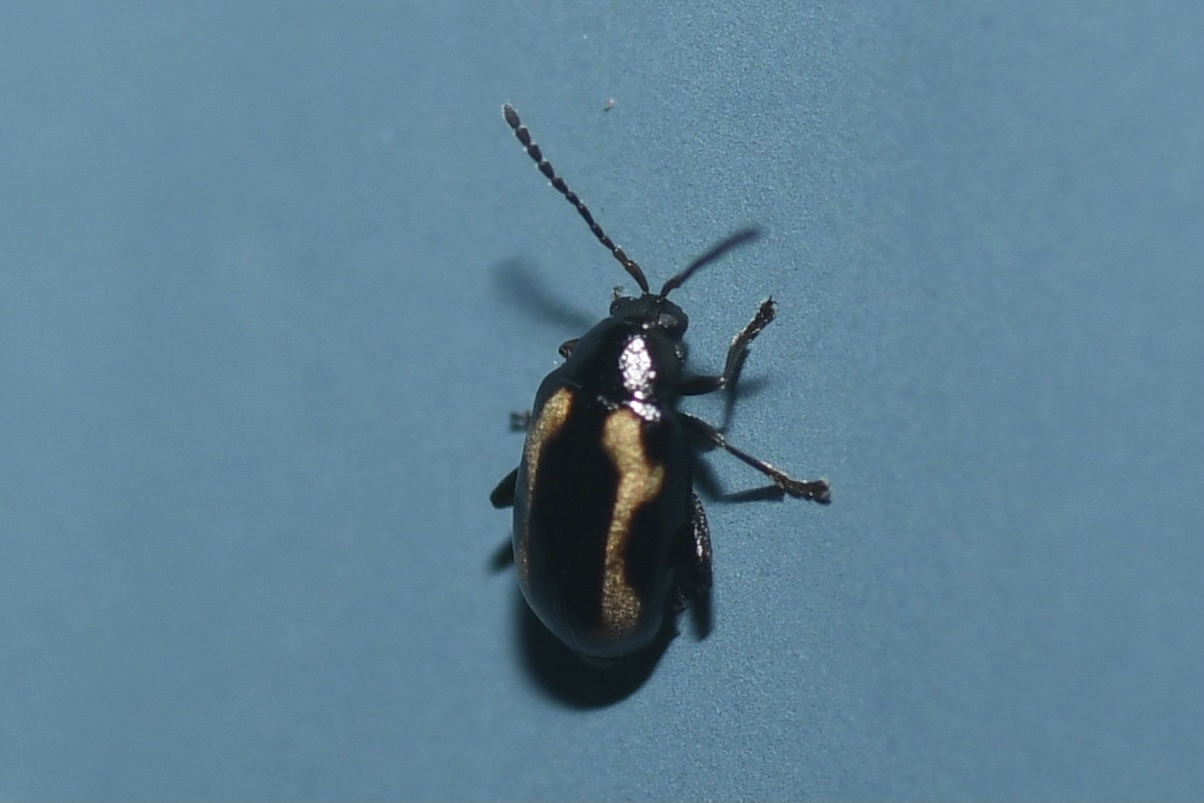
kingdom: Animalia
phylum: Arthropoda
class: Insecta
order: Coleoptera
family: Chrysomelidae
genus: Phyllotreta
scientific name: Phyllotreta striolata
